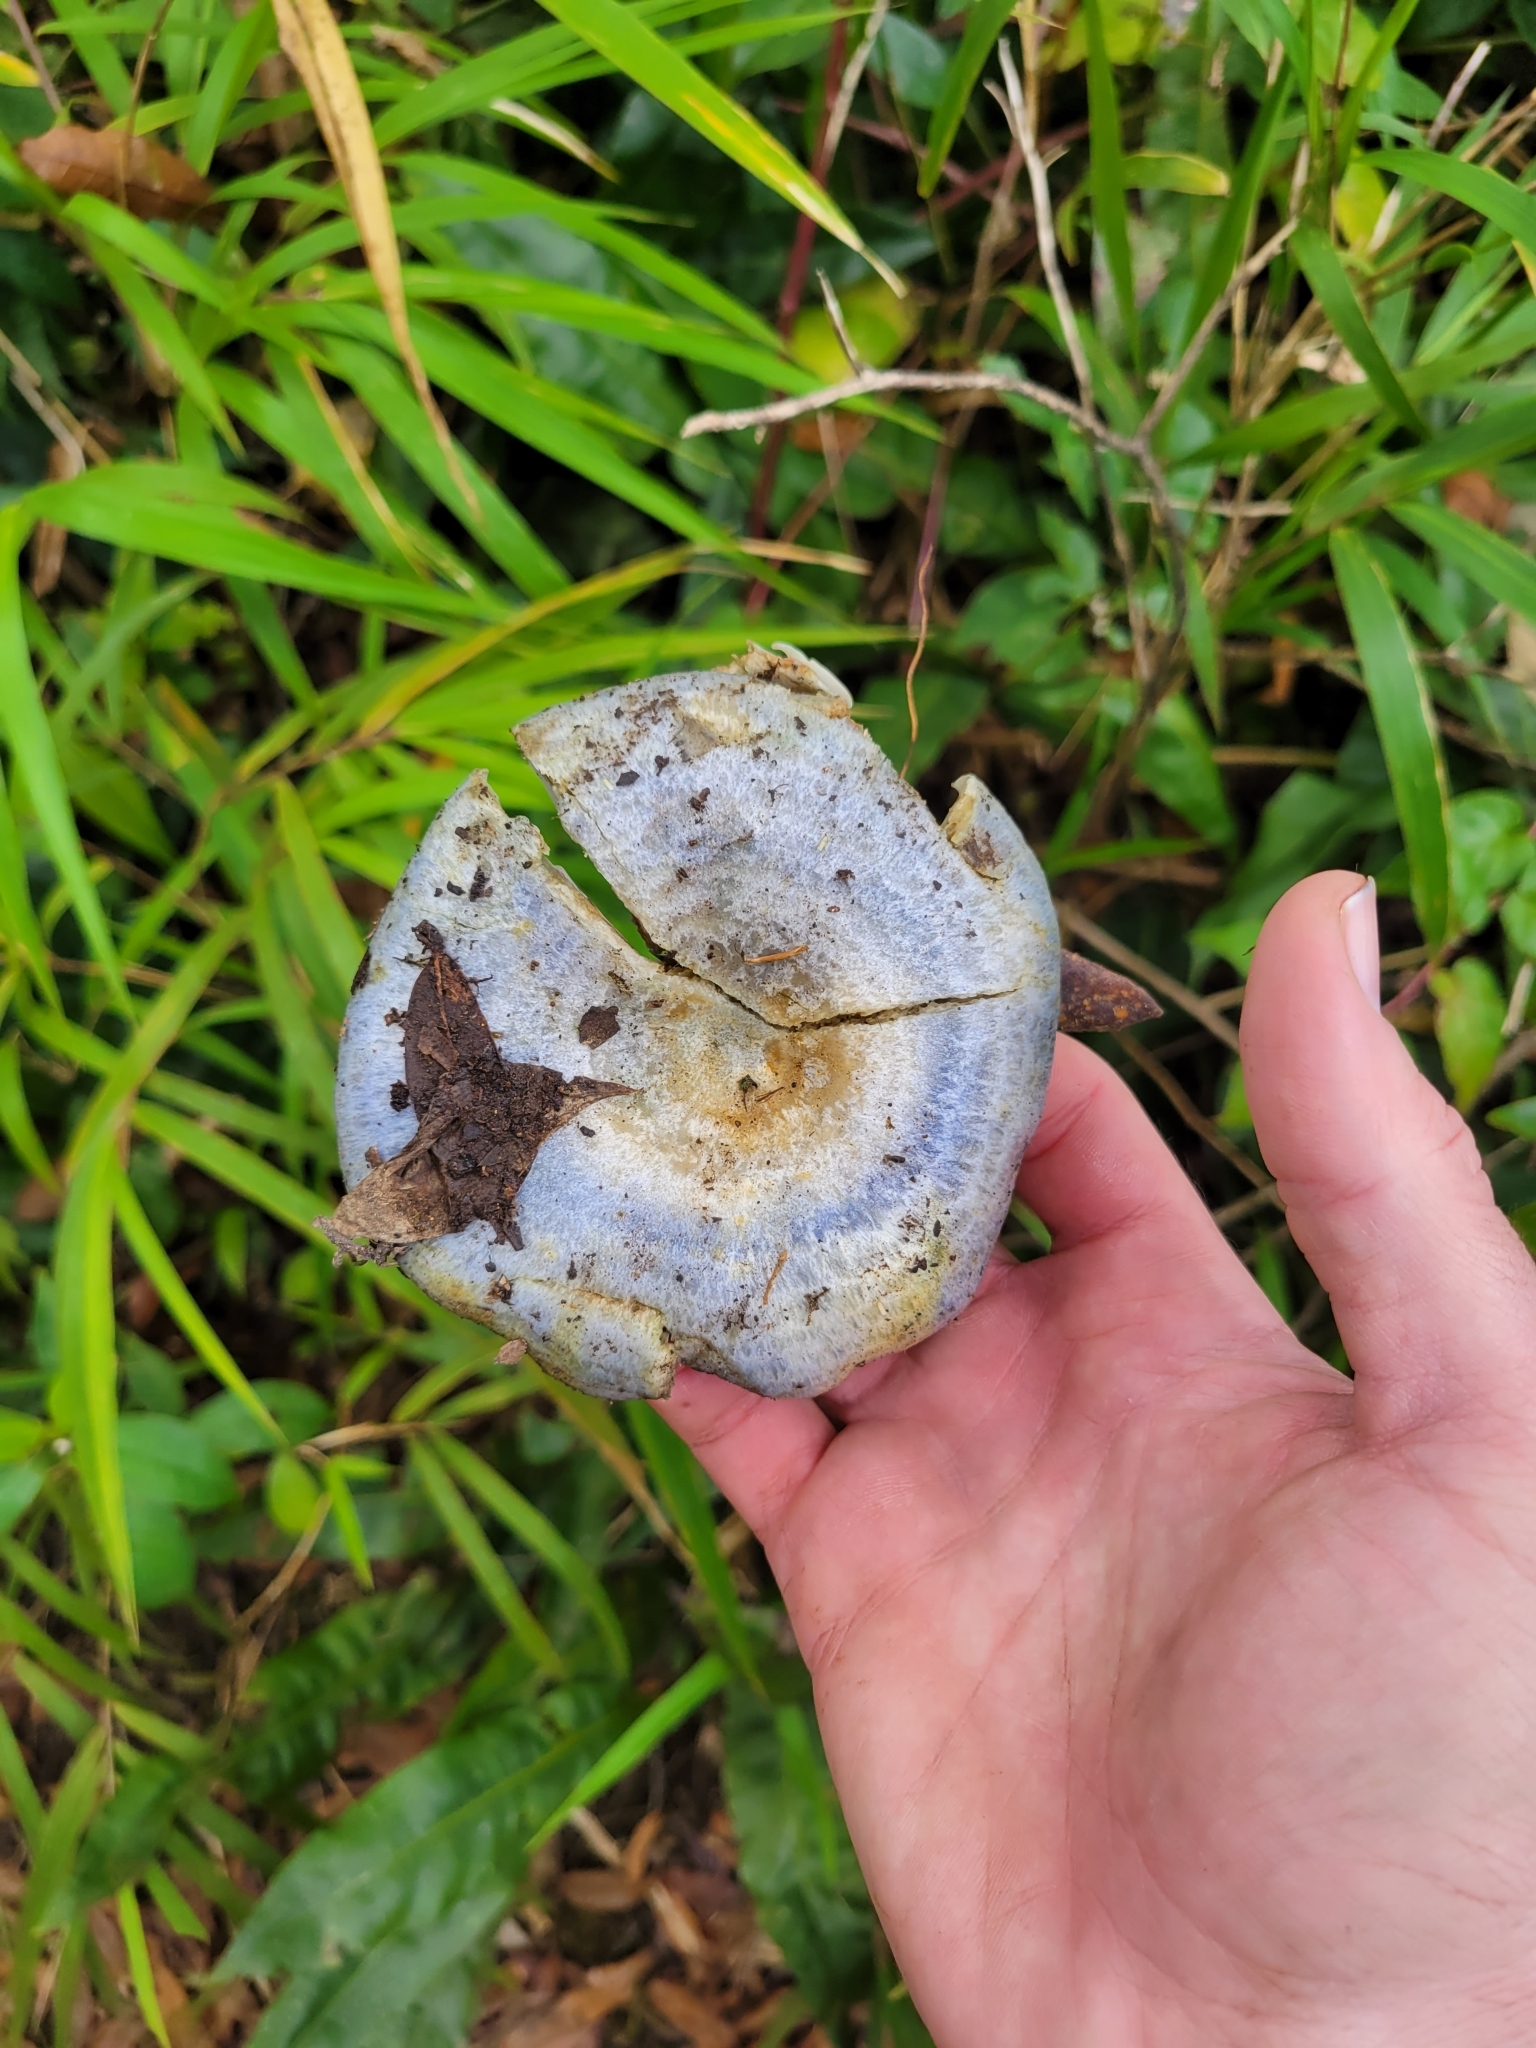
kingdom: Fungi
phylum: Basidiomycota
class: Agaricomycetes
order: Russulales
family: Russulaceae
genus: Lactarius
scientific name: Lactarius indigo
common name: Indigo milk cap
